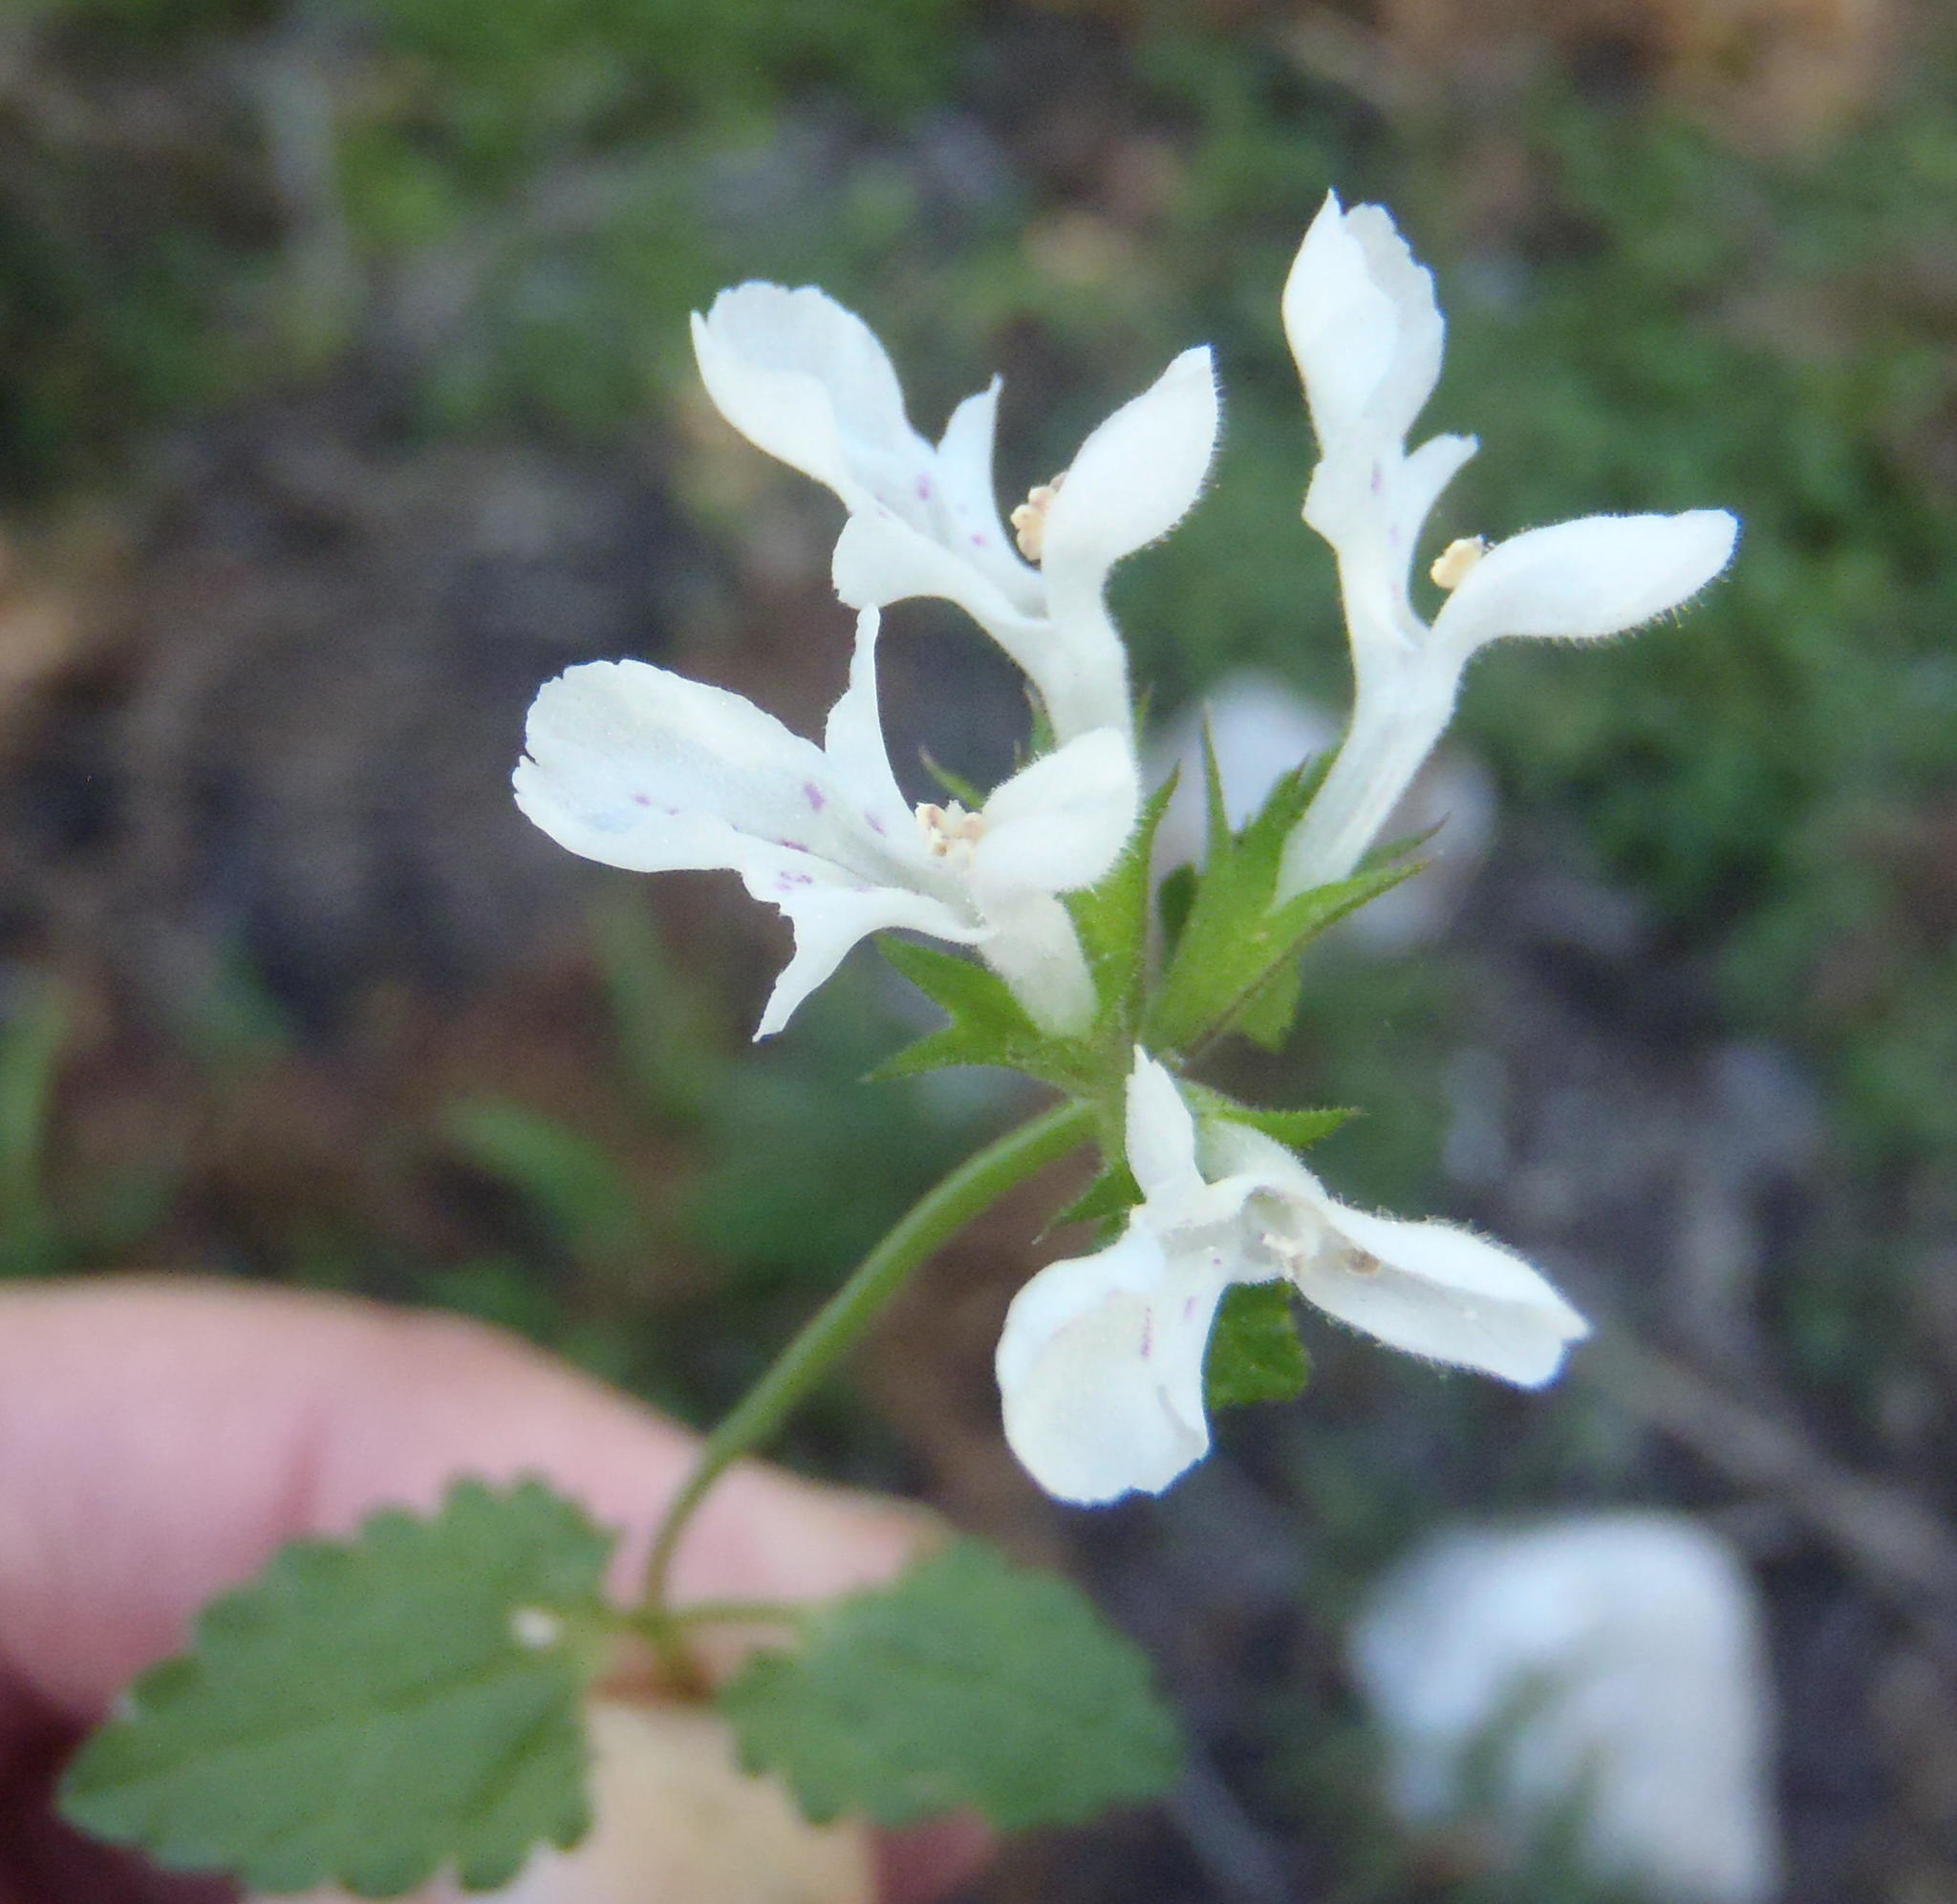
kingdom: Plantae
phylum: Tracheophyta
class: Magnoliopsida
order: Lamiales
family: Lamiaceae
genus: Stachys
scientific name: Stachys aethiopica
